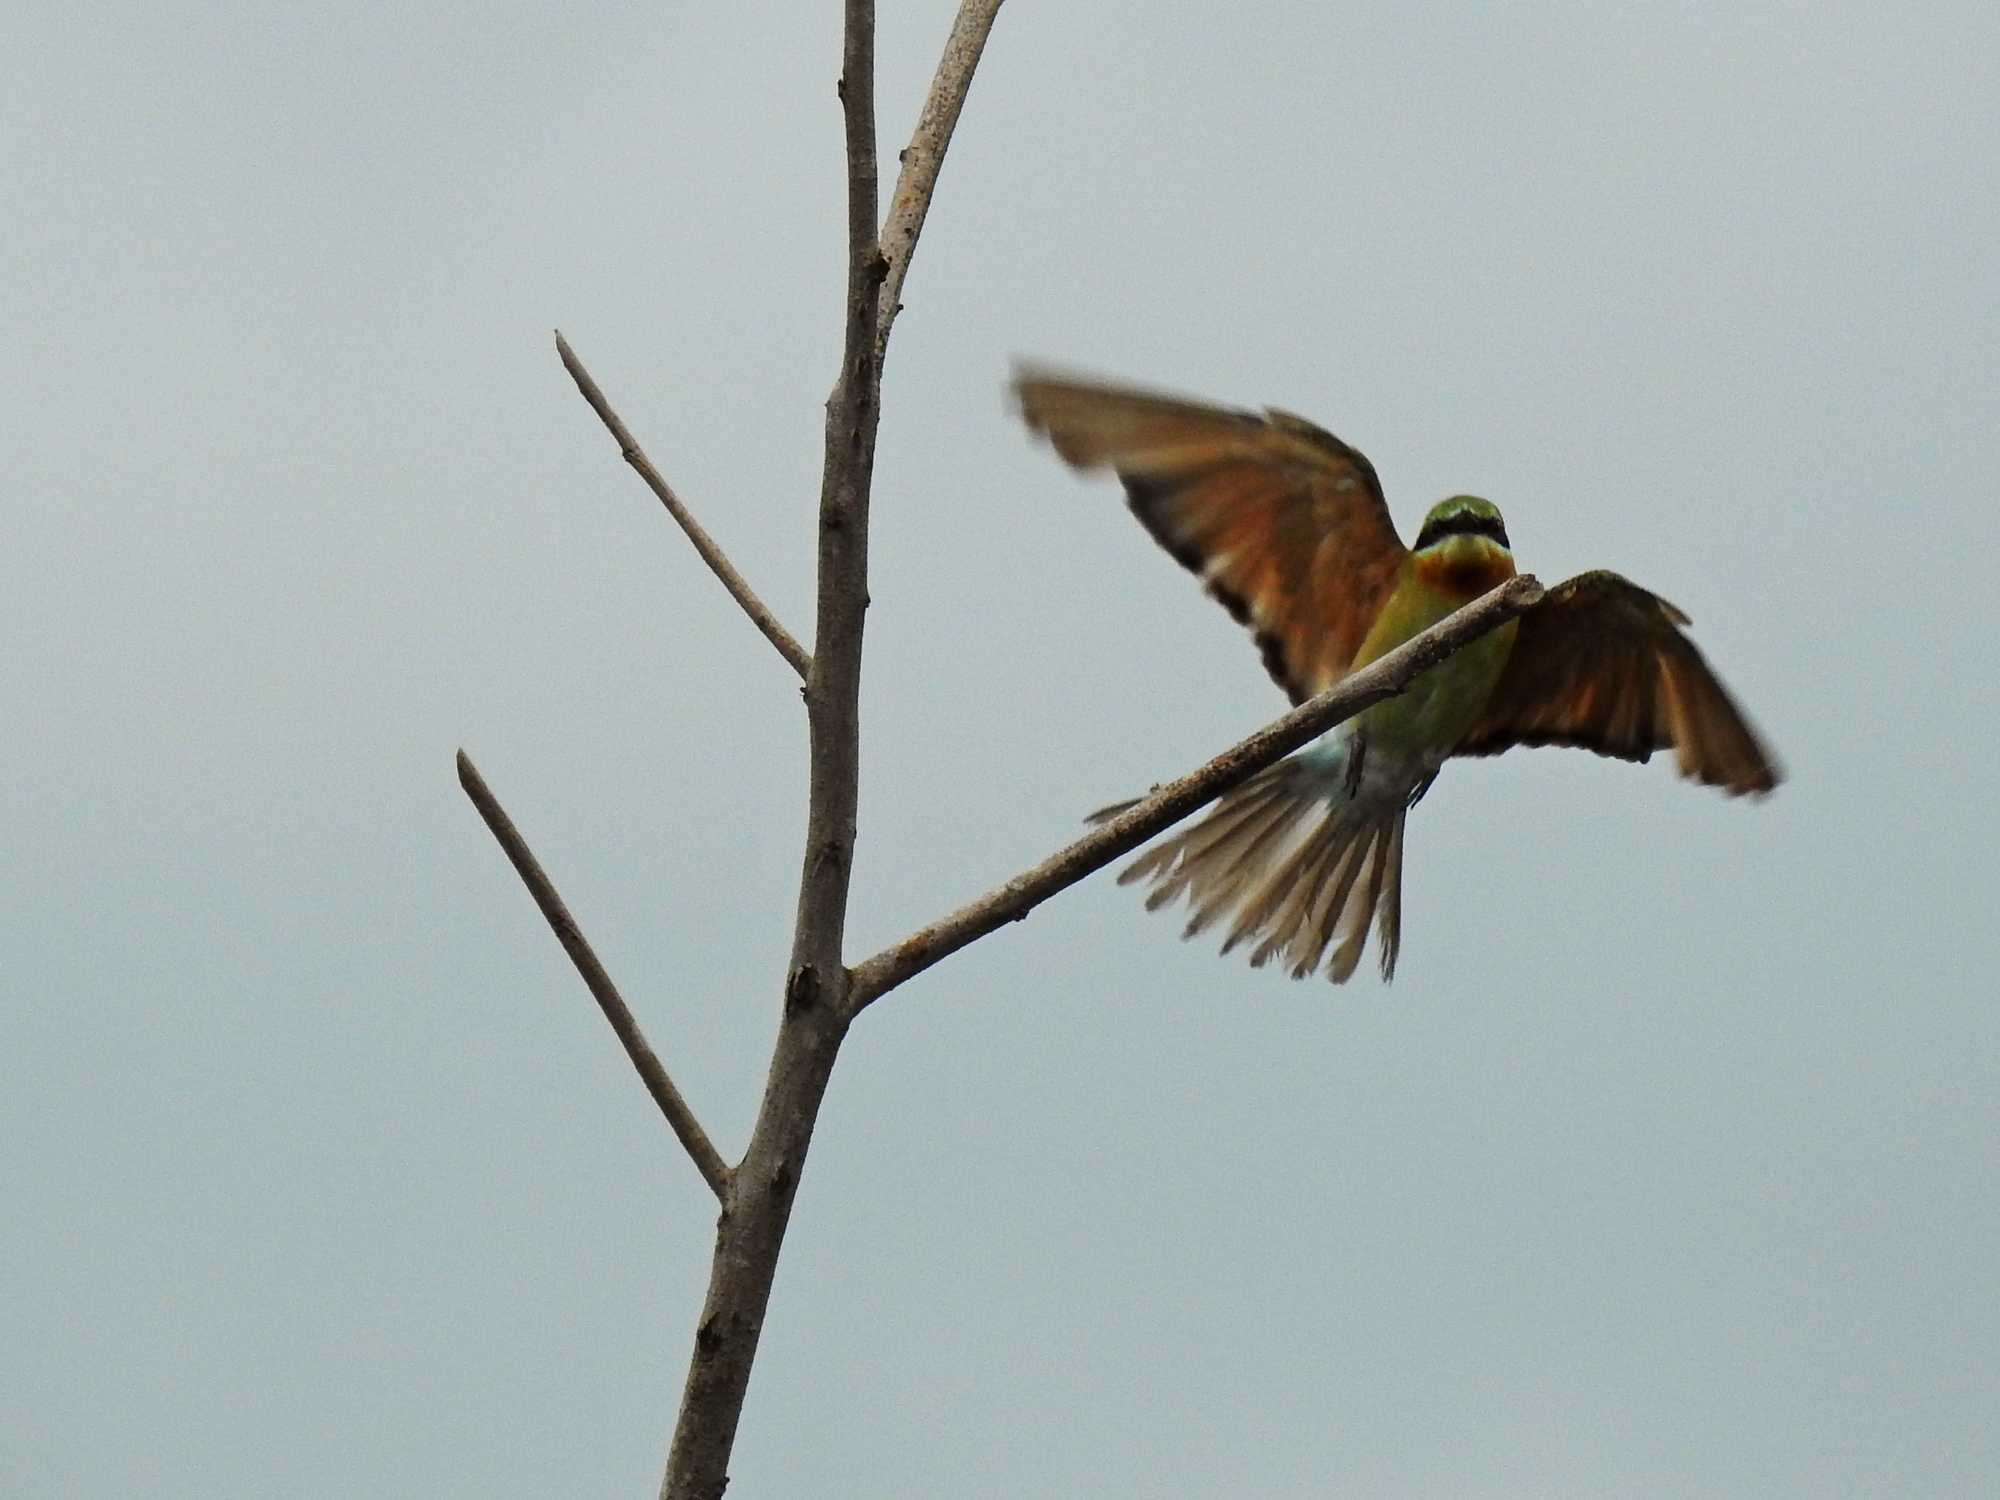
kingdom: Animalia
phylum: Chordata
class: Aves
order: Coraciiformes
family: Meropidae
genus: Merops
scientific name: Merops philippinus
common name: Blue-tailed bee-eater
